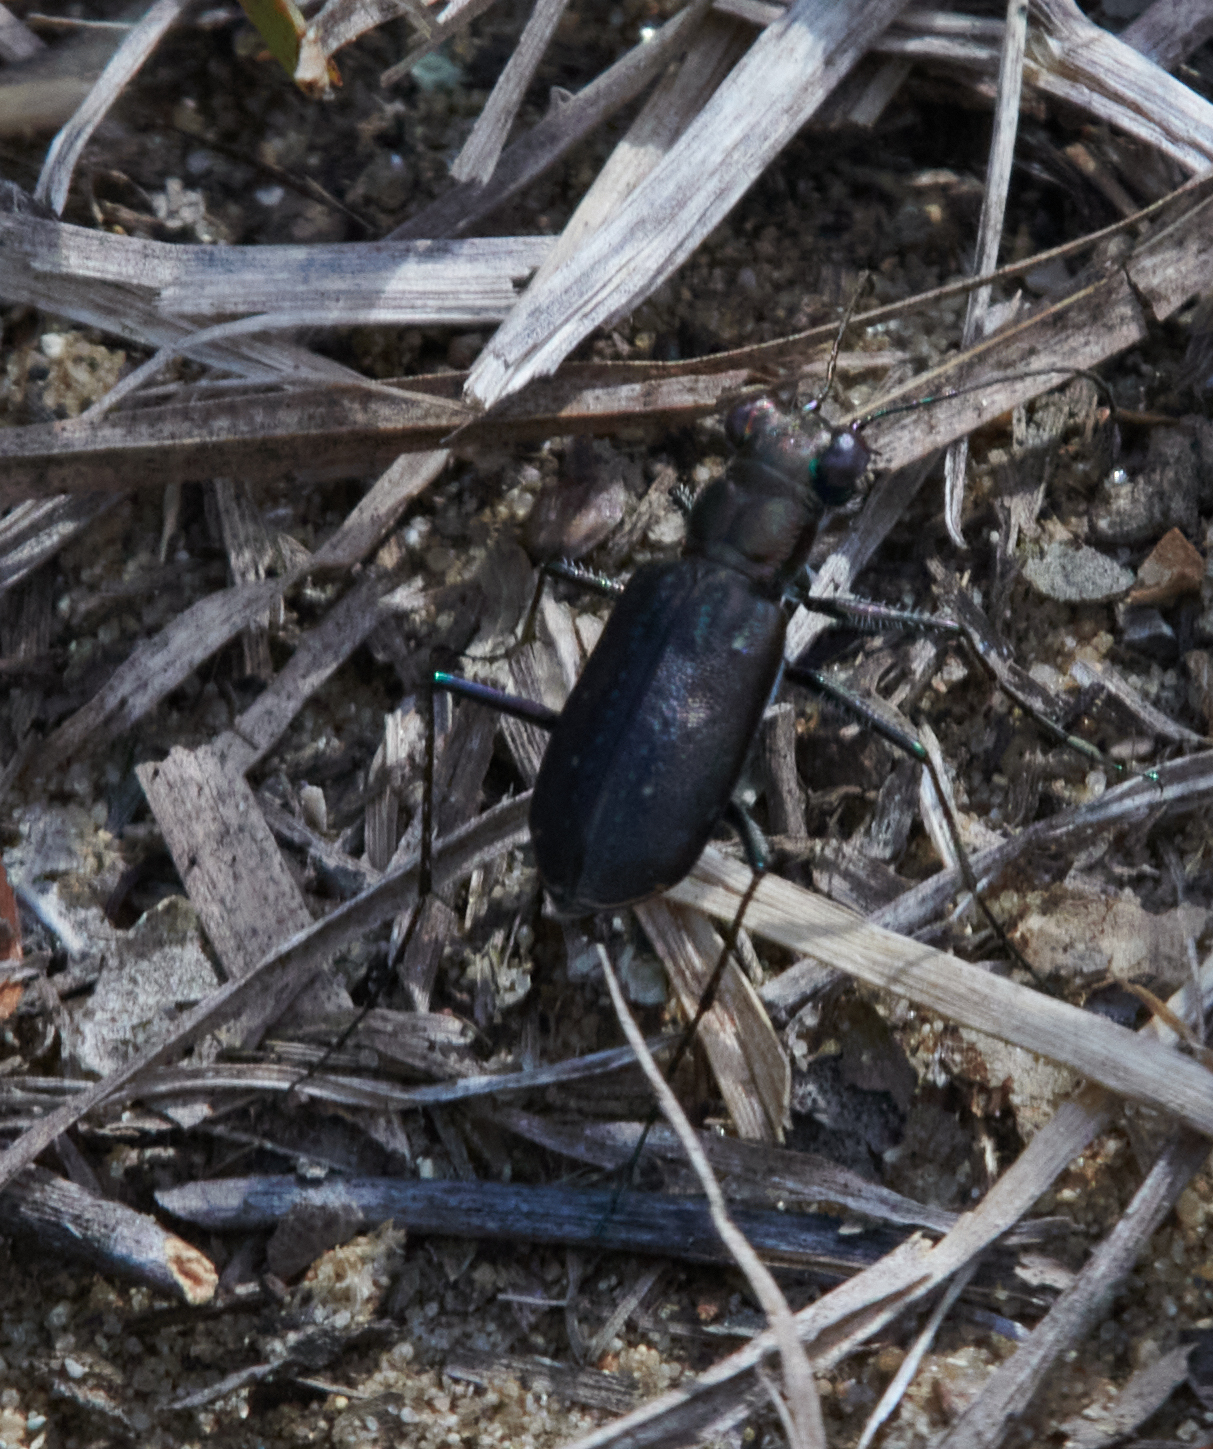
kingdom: Animalia
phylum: Arthropoda
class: Insecta
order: Coleoptera
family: Carabidae
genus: Cicindela
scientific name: Cicindela punctulata
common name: Punctured tiger beetle
